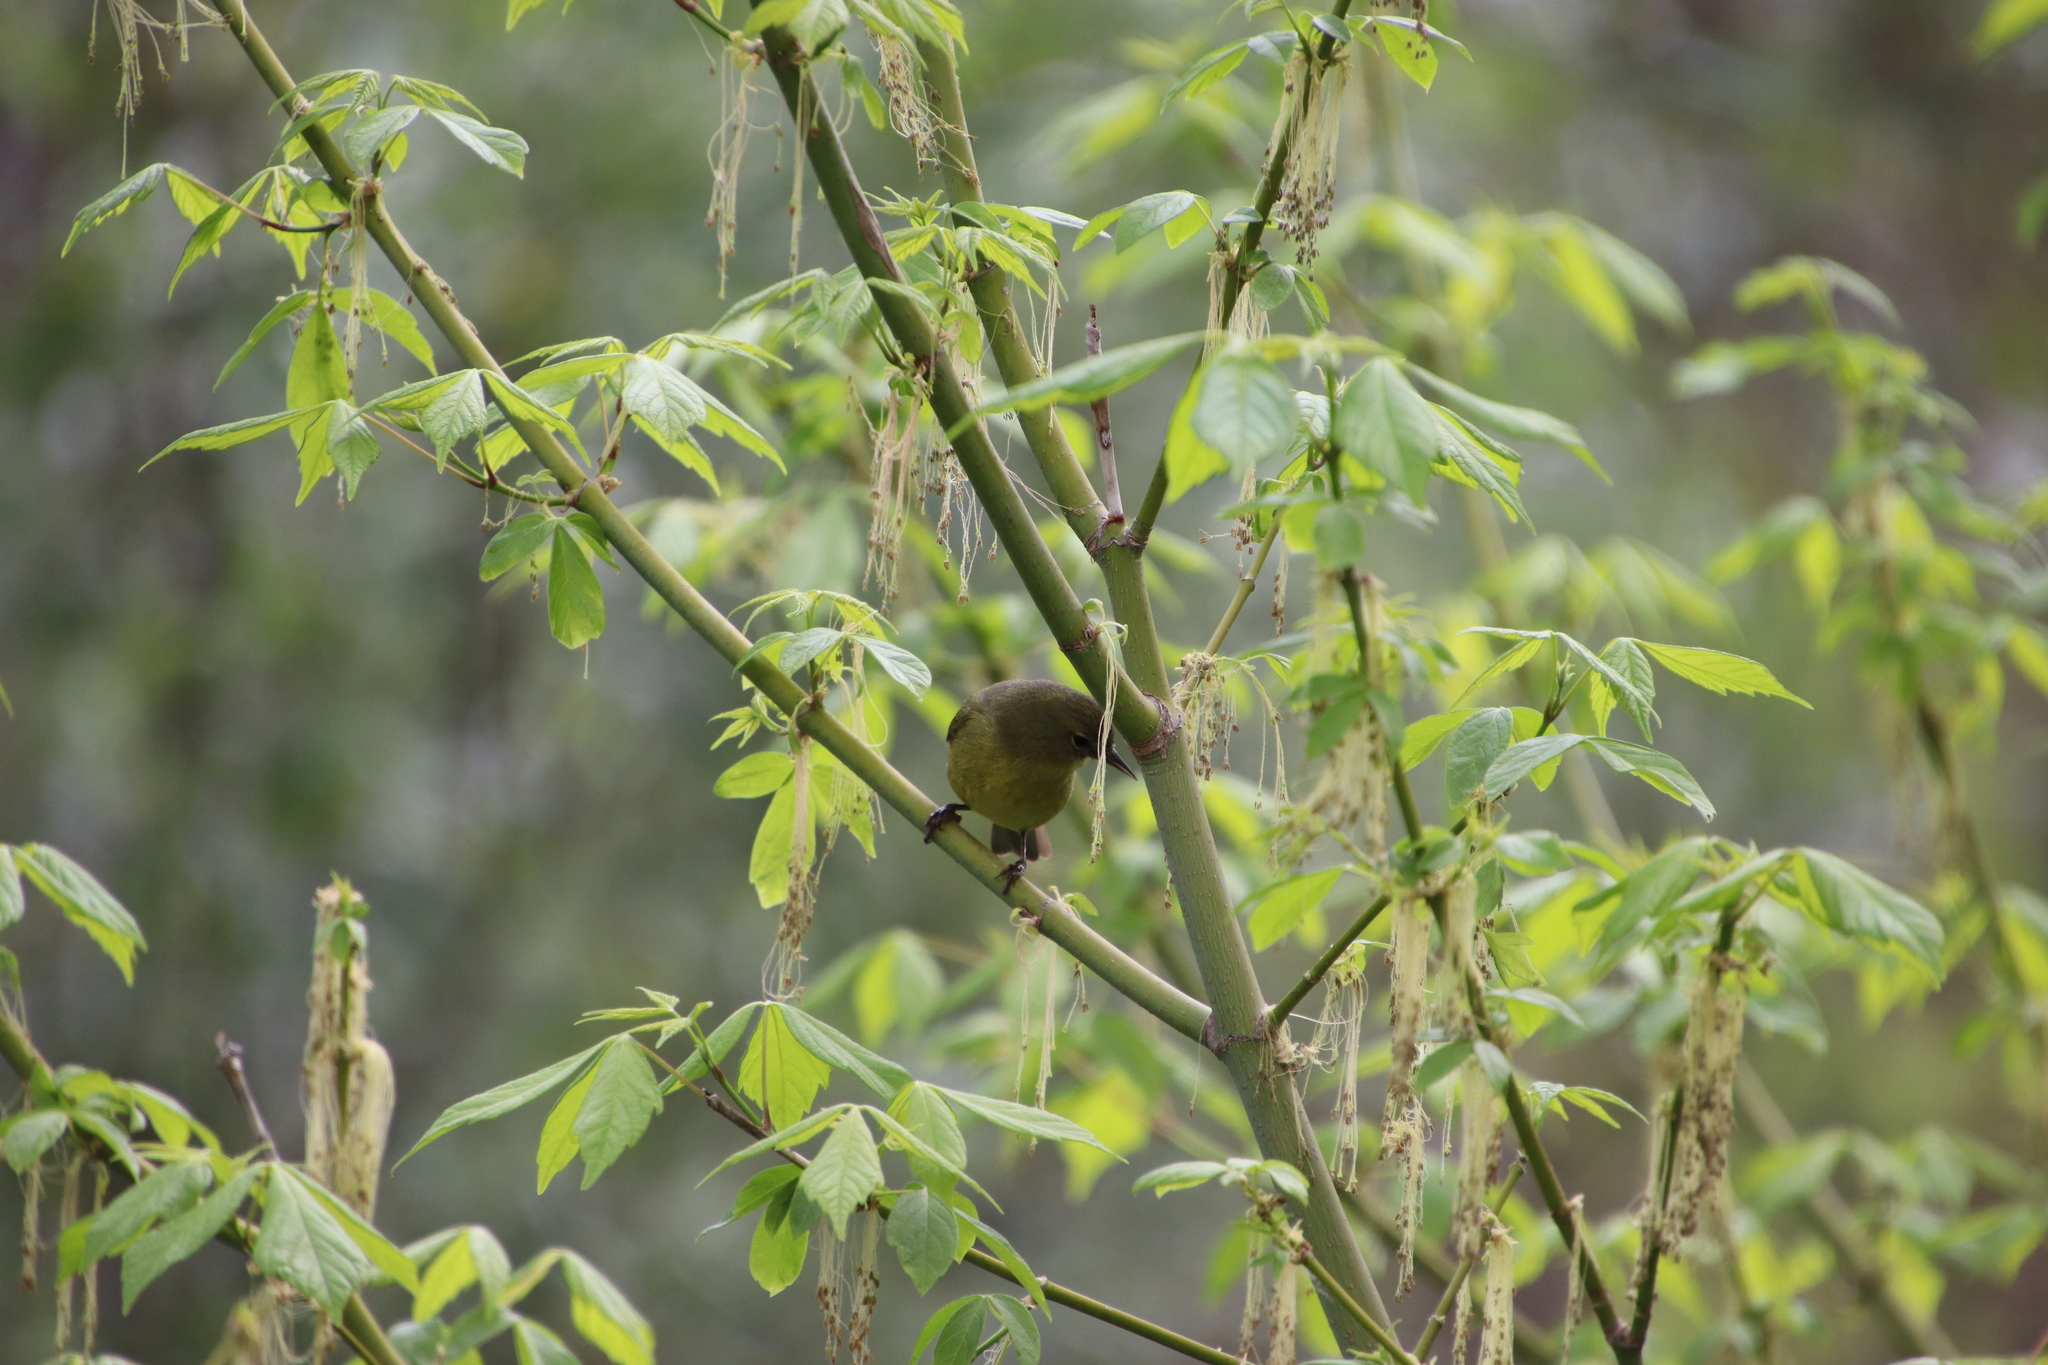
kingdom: Plantae
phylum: Tracheophyta
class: Magnoliopsida
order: Sapindales
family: Sapindaceae
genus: Acer
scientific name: Acer negundo
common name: Ashleaf maple
